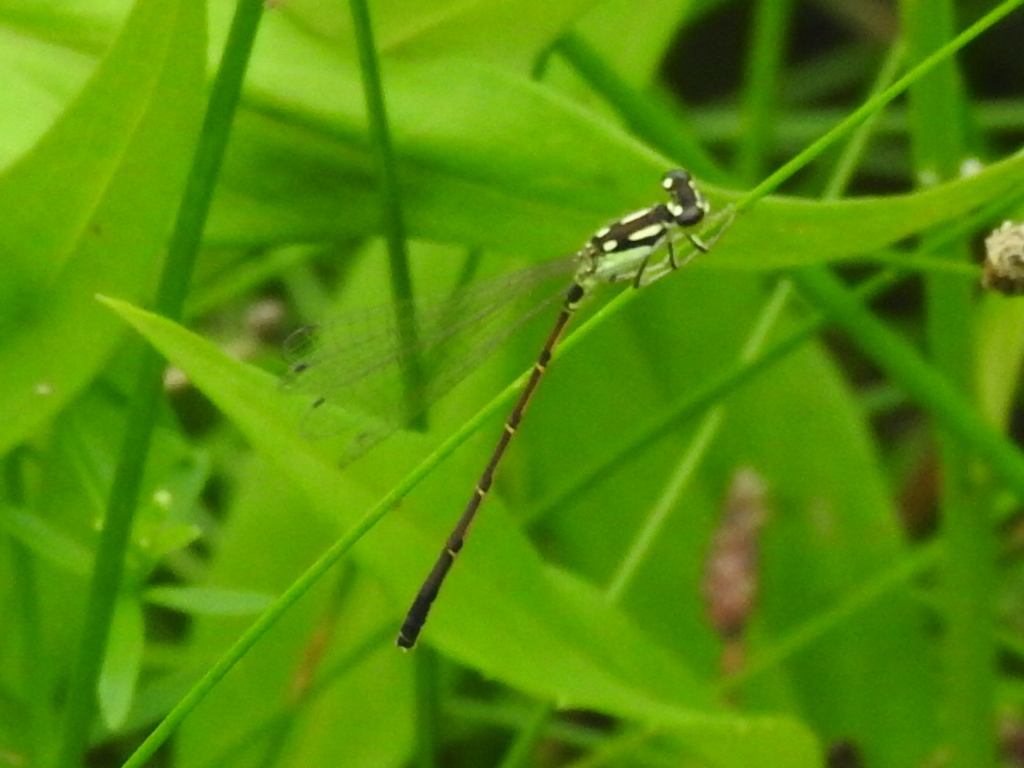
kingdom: Animalia
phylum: Arthropoda
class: Insecta
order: Odonata
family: Coenagrionidae
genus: Ischnura
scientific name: Ischnura posita
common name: Fragile forktail
